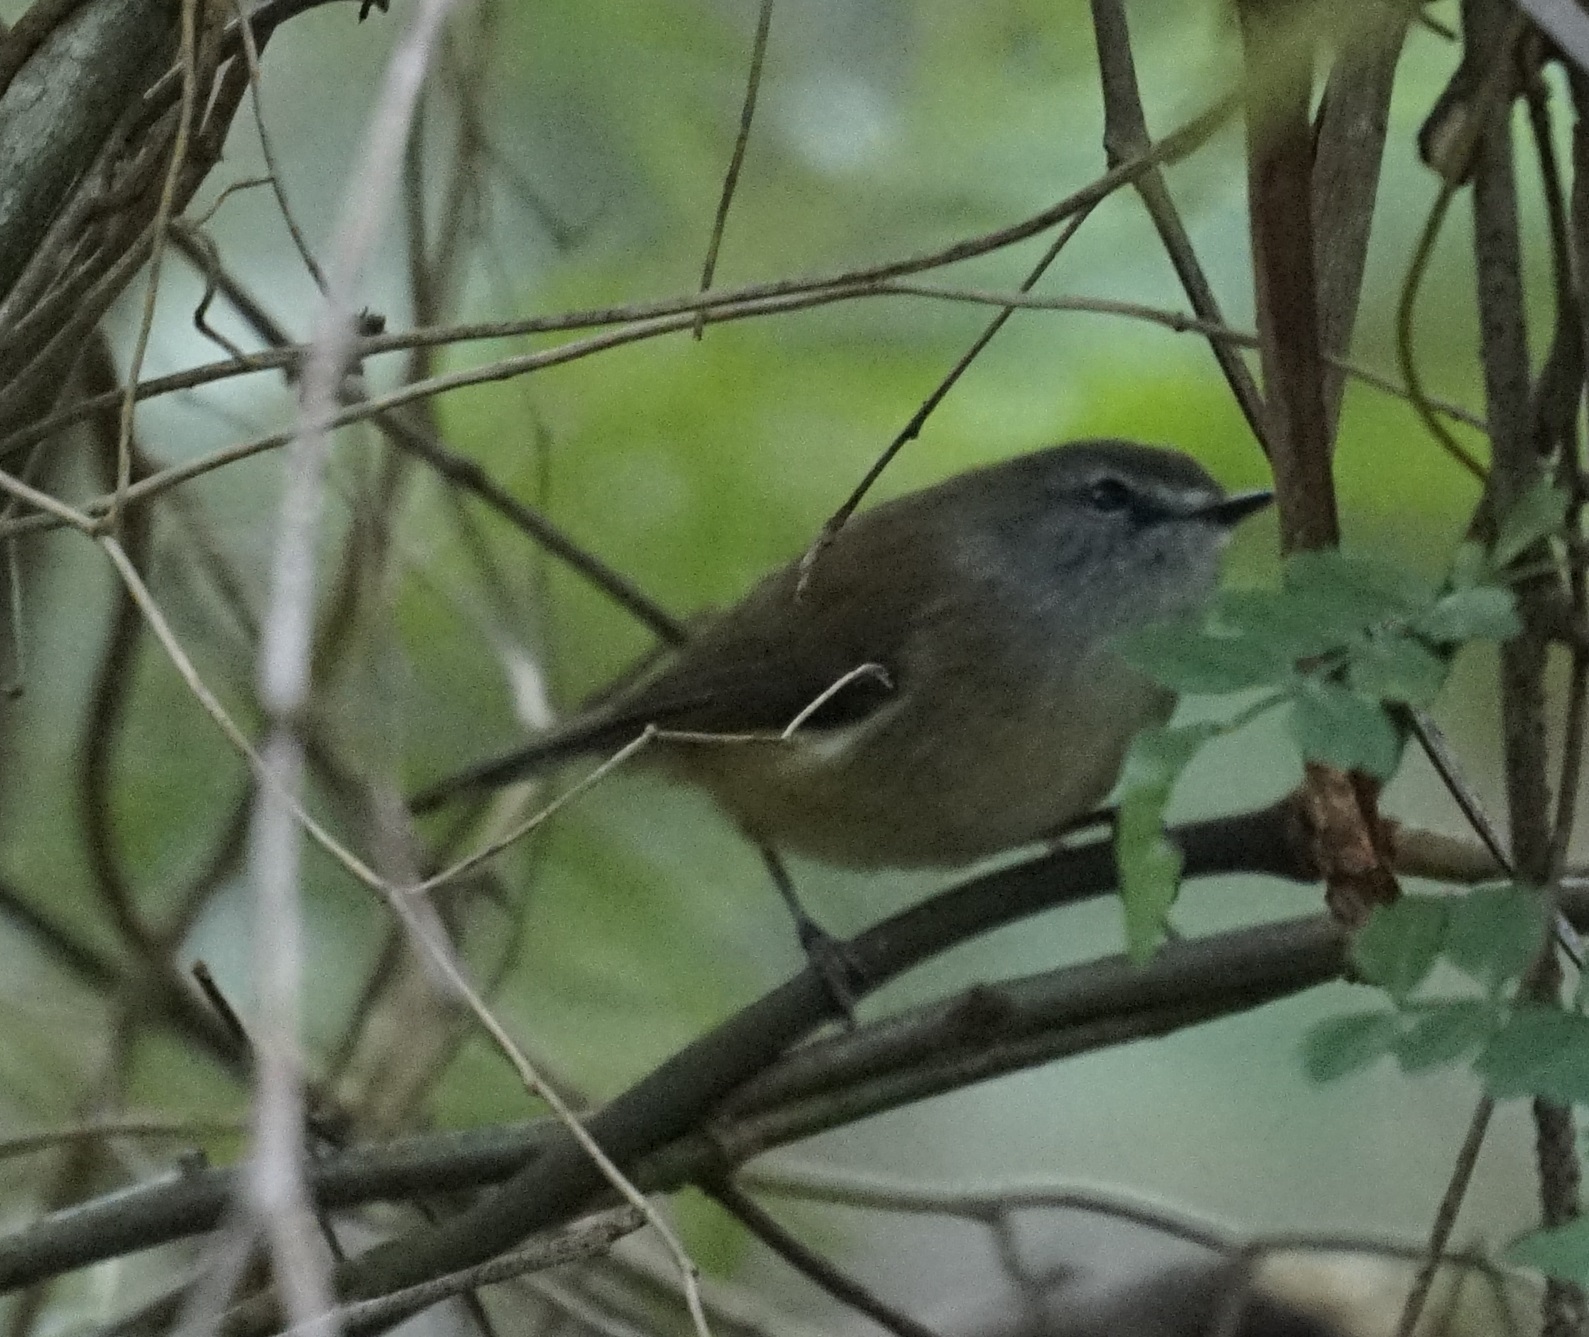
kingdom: Animalia
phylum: Chordata
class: Aves
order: Passeriformes
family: Acanthizidae
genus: Gerygone
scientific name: Gerygone mouki
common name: Brown gerygone
